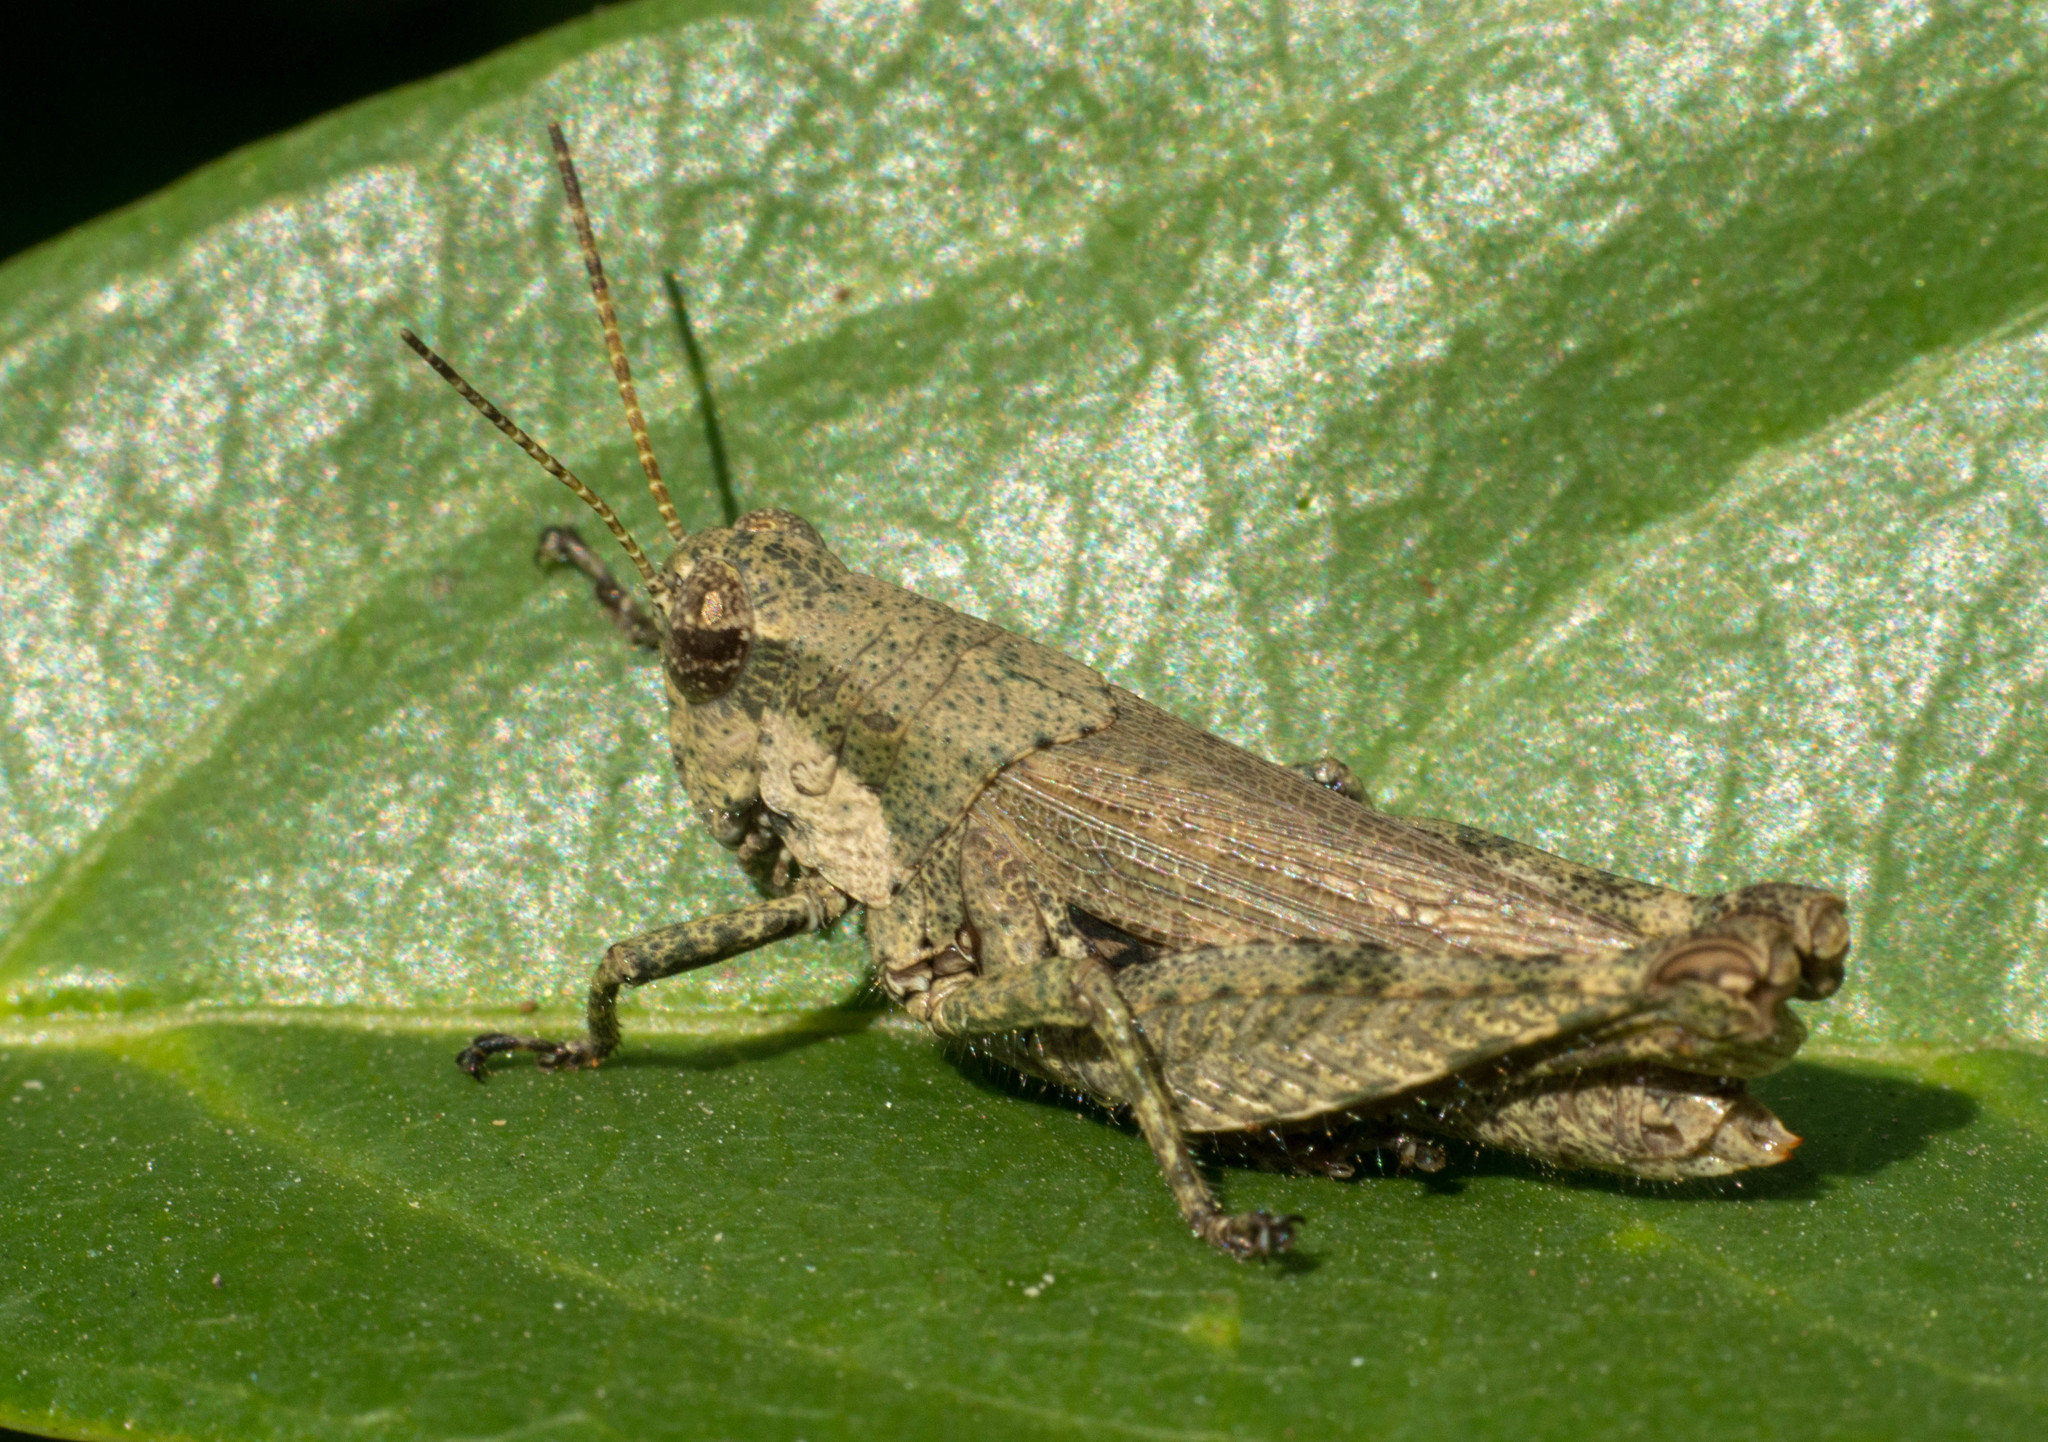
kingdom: Animalia
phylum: Arthropoda
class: Insecta
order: Orthoptera
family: Acrididae
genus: Ronderosia
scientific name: Ronderosia bergii
